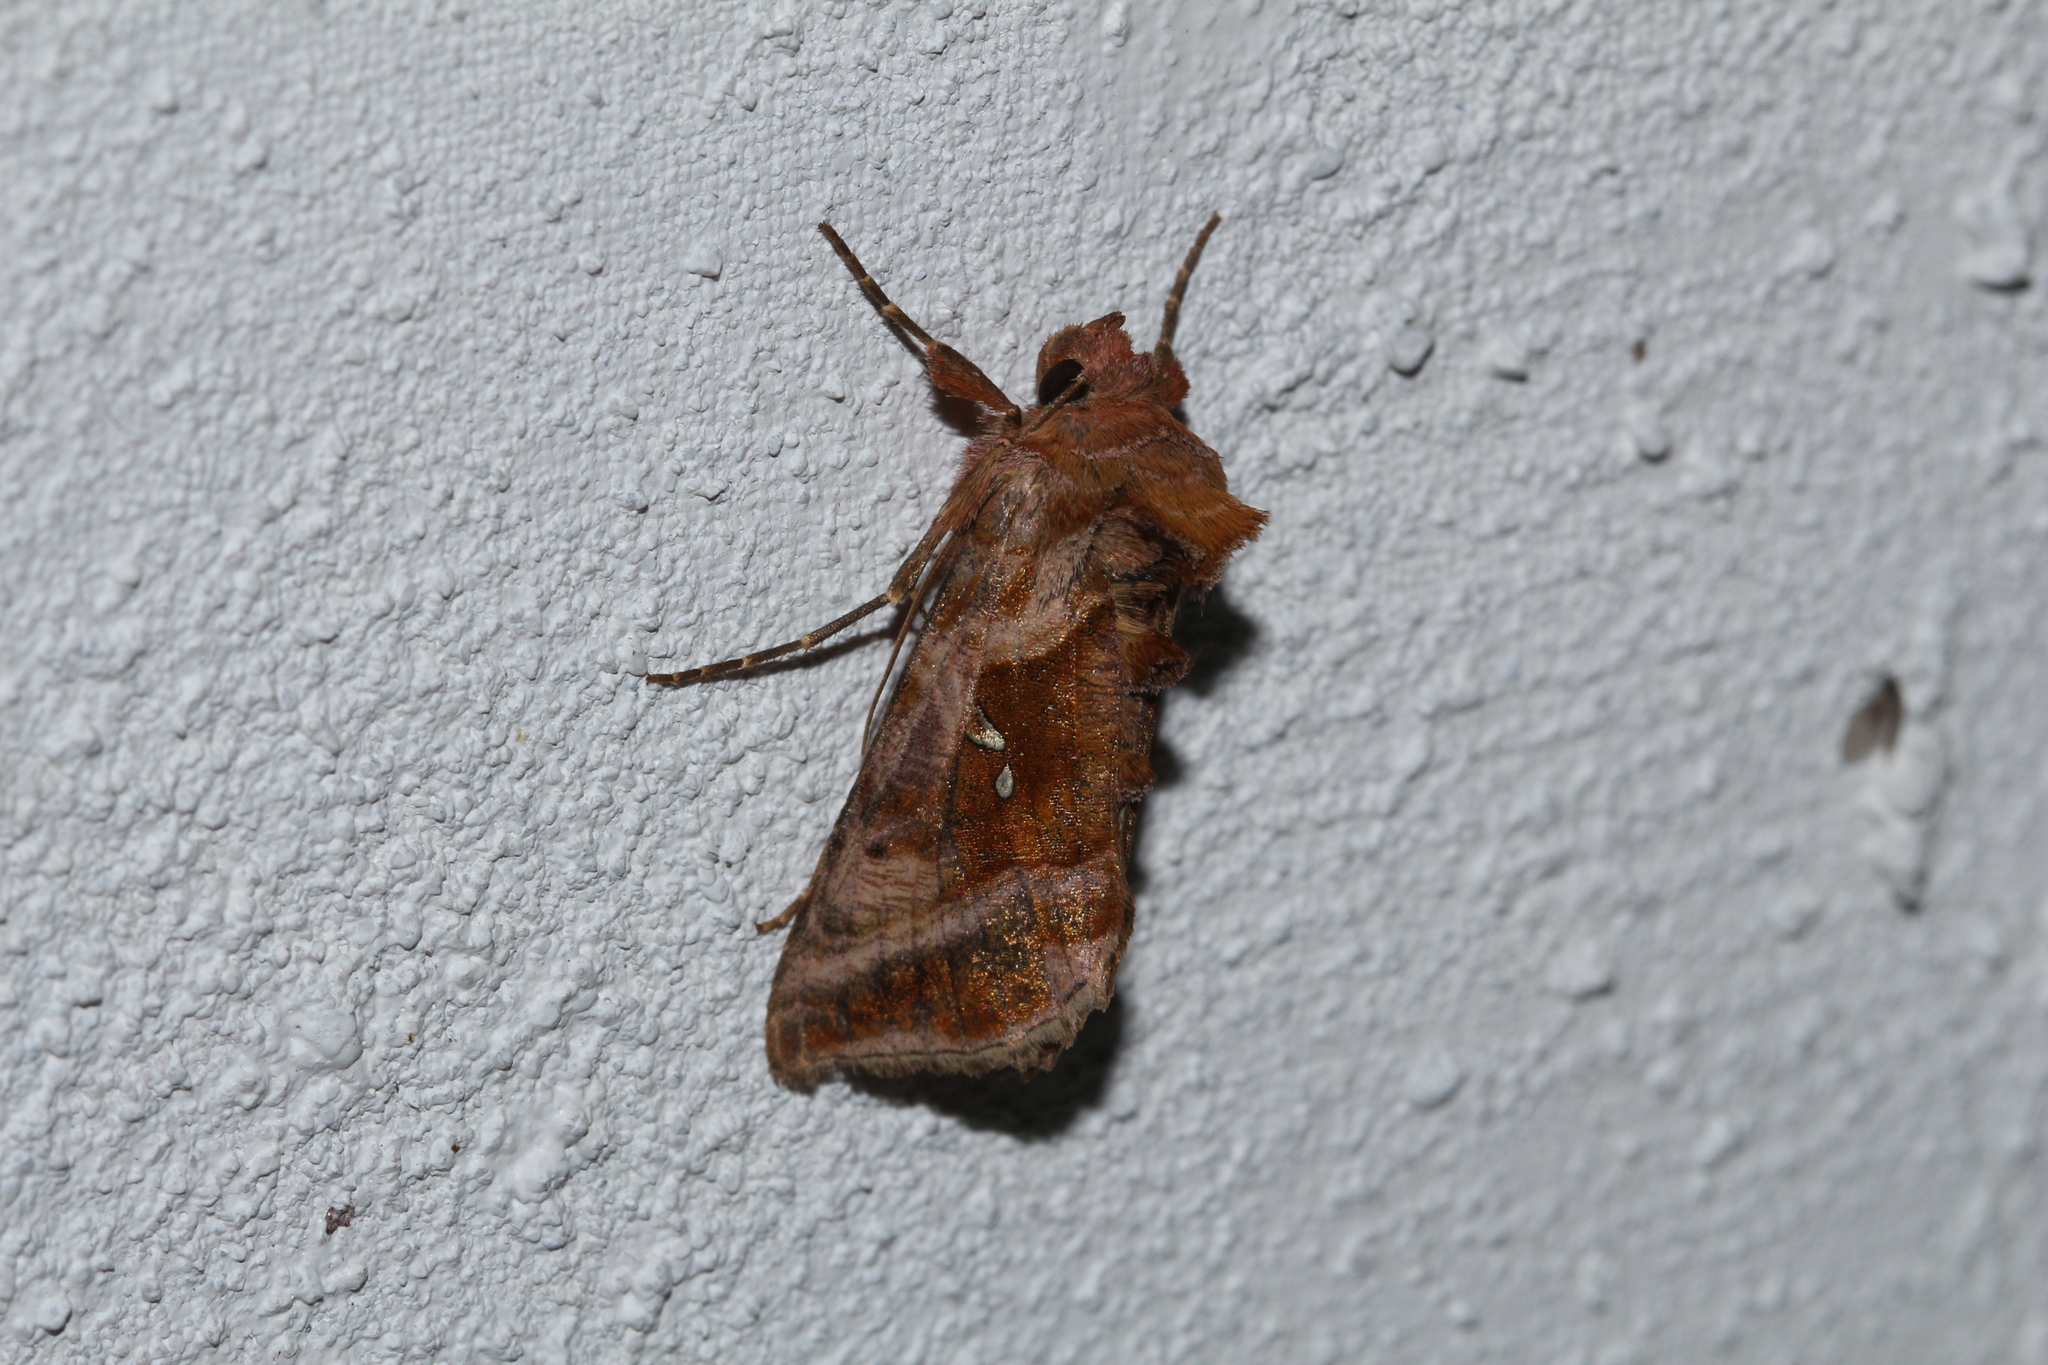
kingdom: Animalia
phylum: Arthropoda
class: Insecta
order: Lepidoptera
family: Noctuidae
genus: Autographa
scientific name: Autographa jota
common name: Plain golden y
